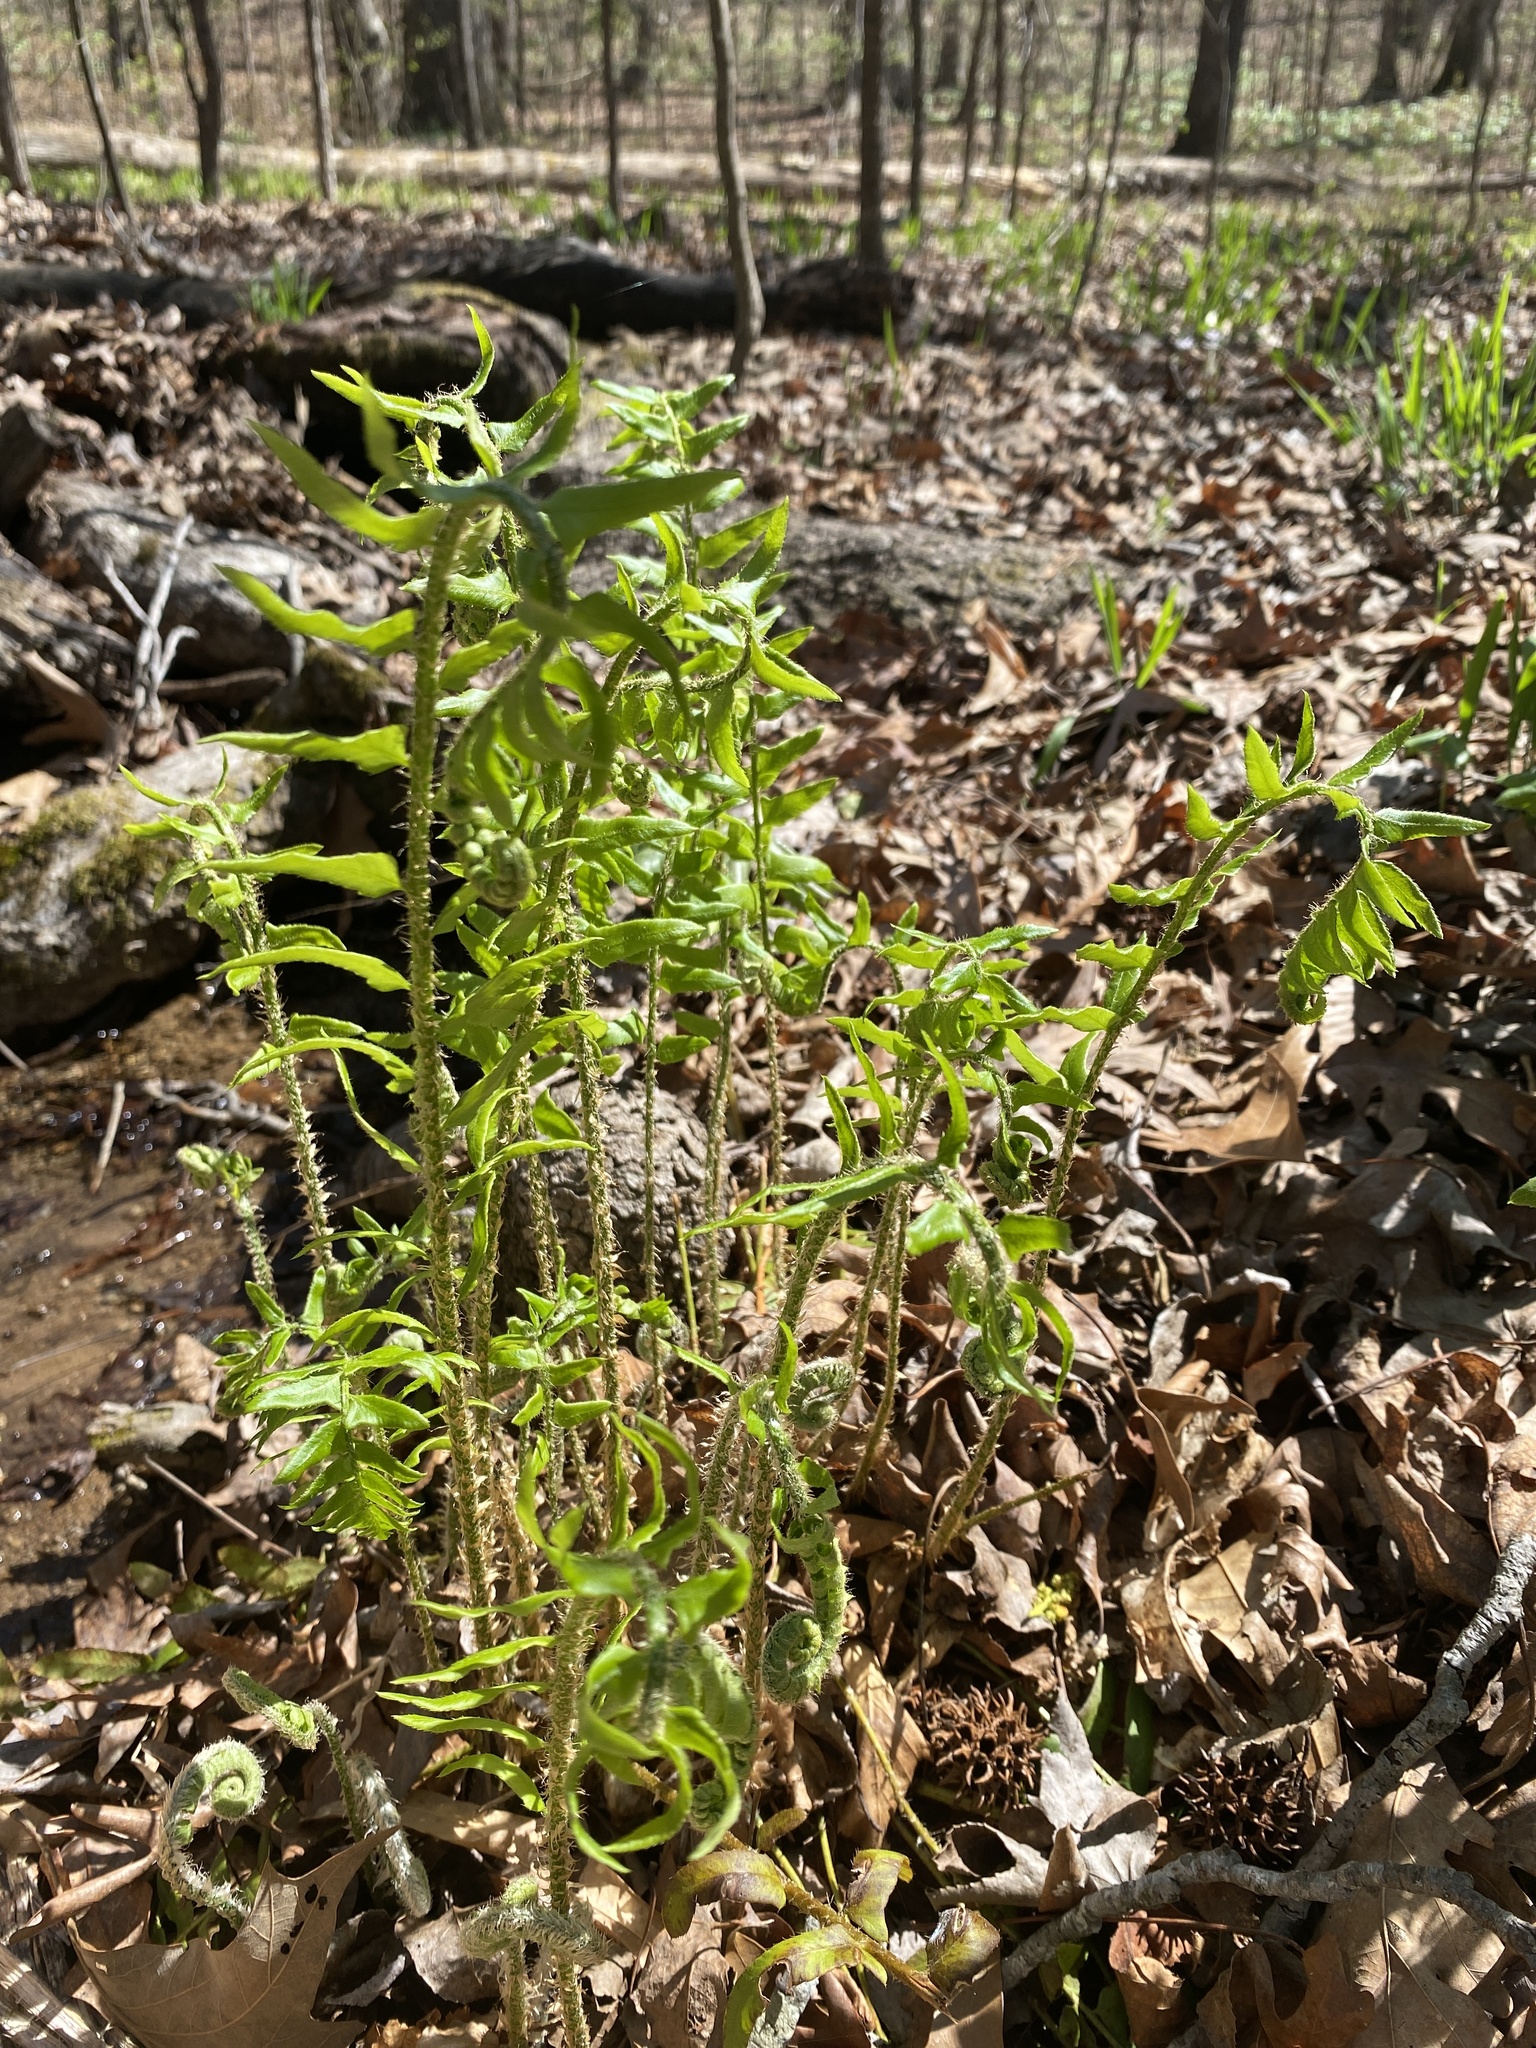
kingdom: Plantae
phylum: Tracheophyta
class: Polypodiopsida
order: Polypodiales
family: Dryopteridaceae
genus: Polystichum
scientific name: Polystichum acrostichoides
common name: Christmas fern
